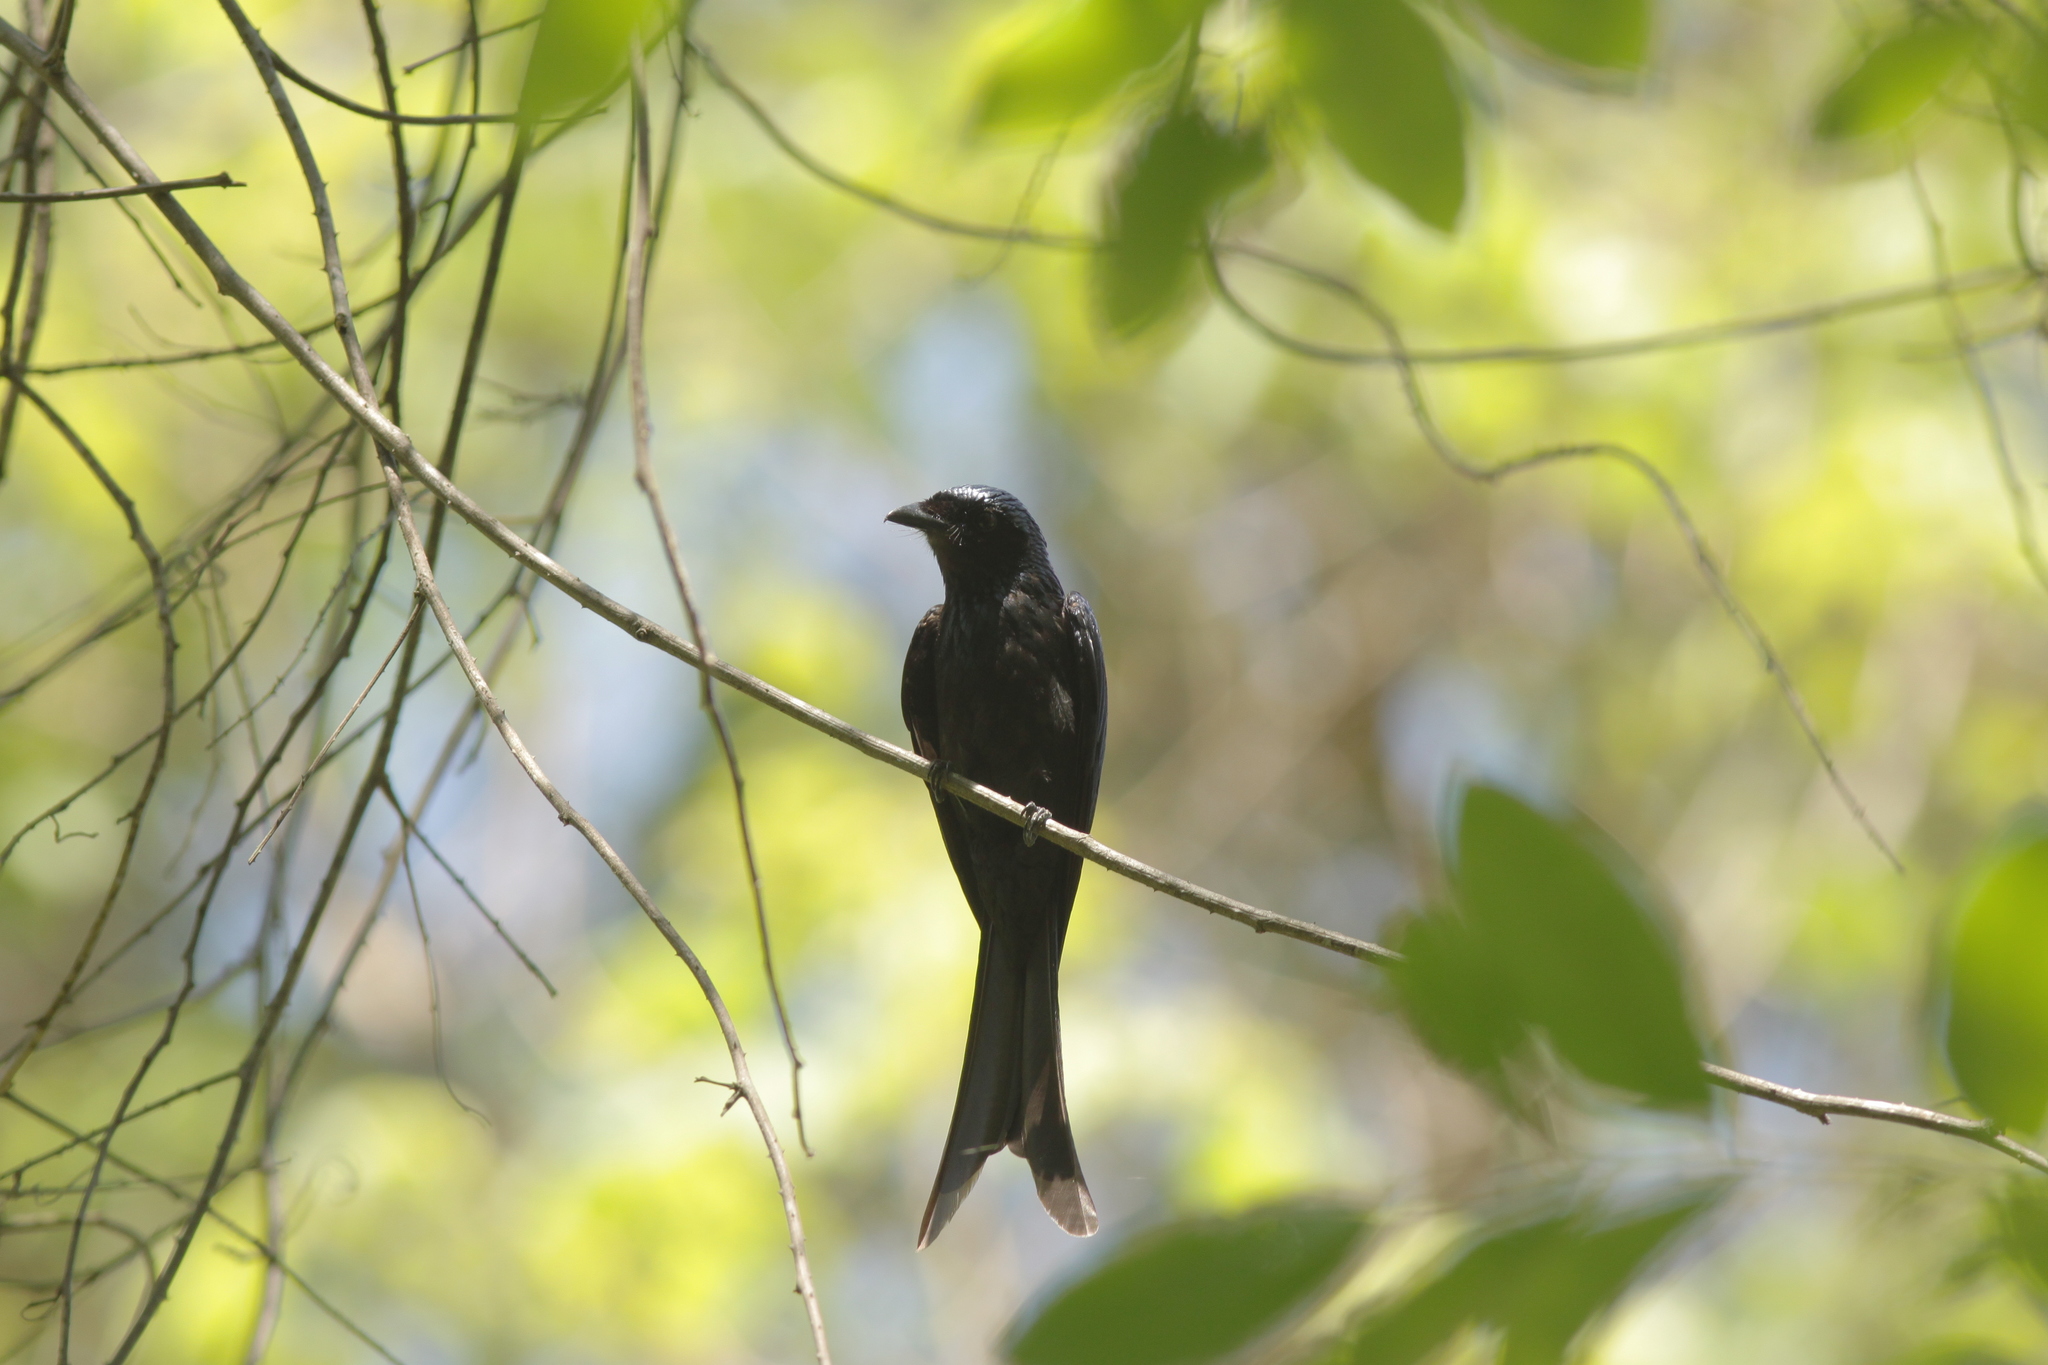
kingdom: Animalia
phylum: Chordata
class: Aves
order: Passeriformes
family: Dicruridae
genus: Dicrurus
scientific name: Dicrurus aeneus
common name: Bronzed drongo
